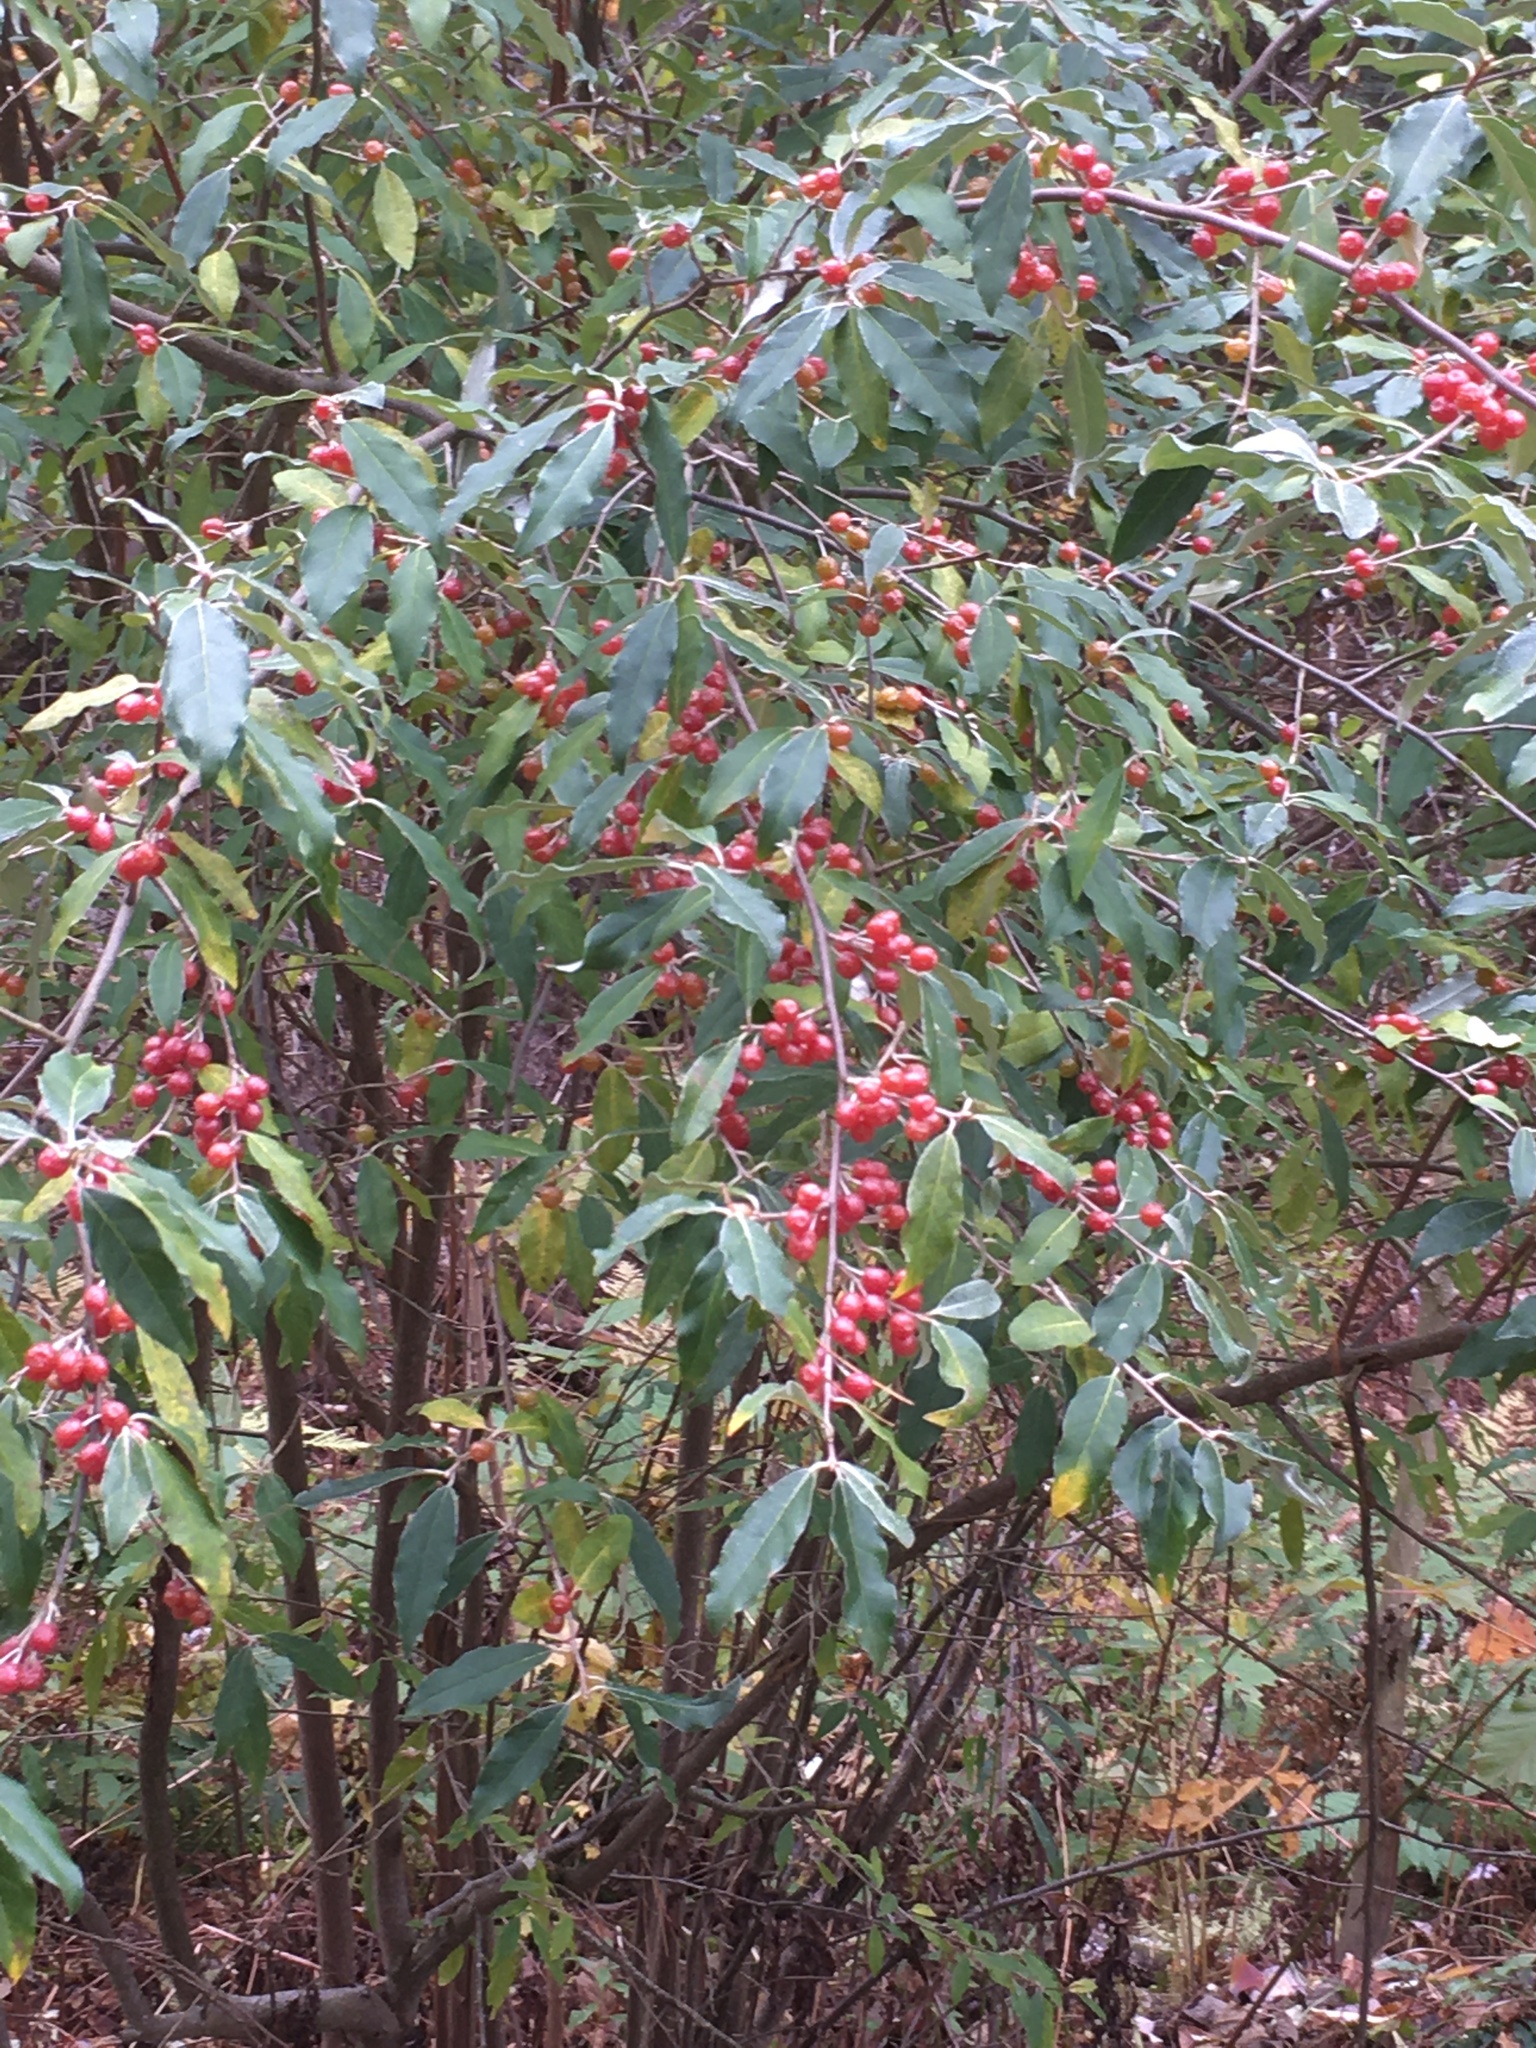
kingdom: Plantae
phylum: Tracheophyta
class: Magnoliopsida
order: Rosales
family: Elaeagnaceae
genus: Elaeagnus
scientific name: Elaeagnus umbellata
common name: Autumn olive
